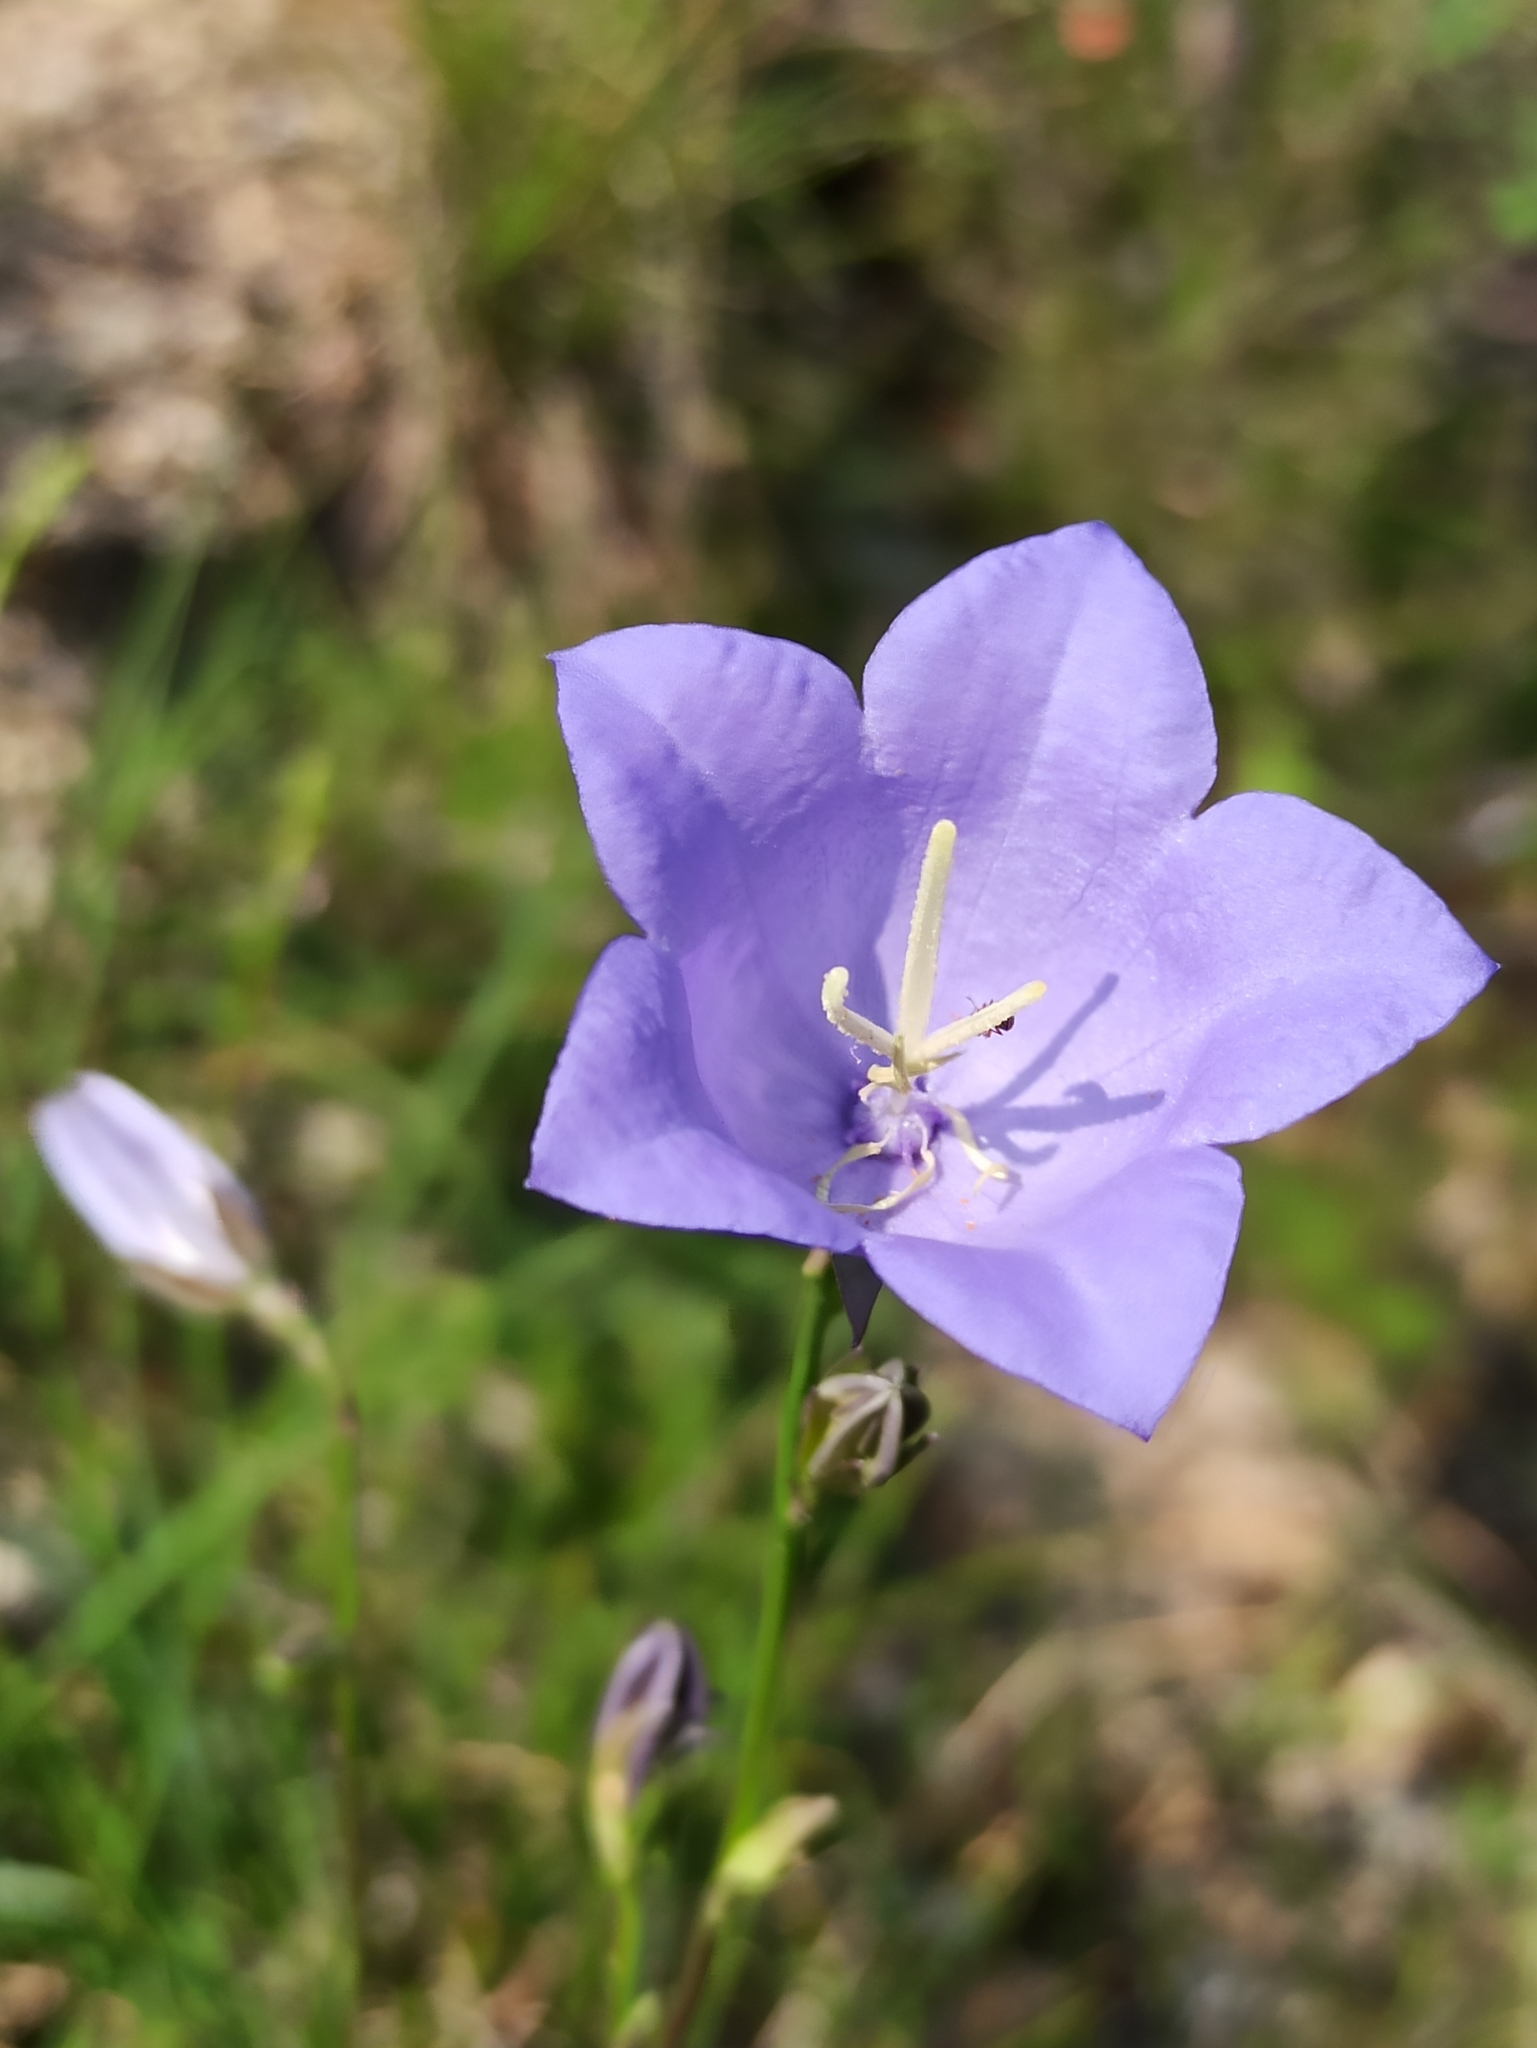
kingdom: Plantae
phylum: Tracheophyta
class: Magnoliopsida
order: Asterales
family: Campanulaceae
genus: Campanula
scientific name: Campanula persicifolia
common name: Peach-leaved bellflower
